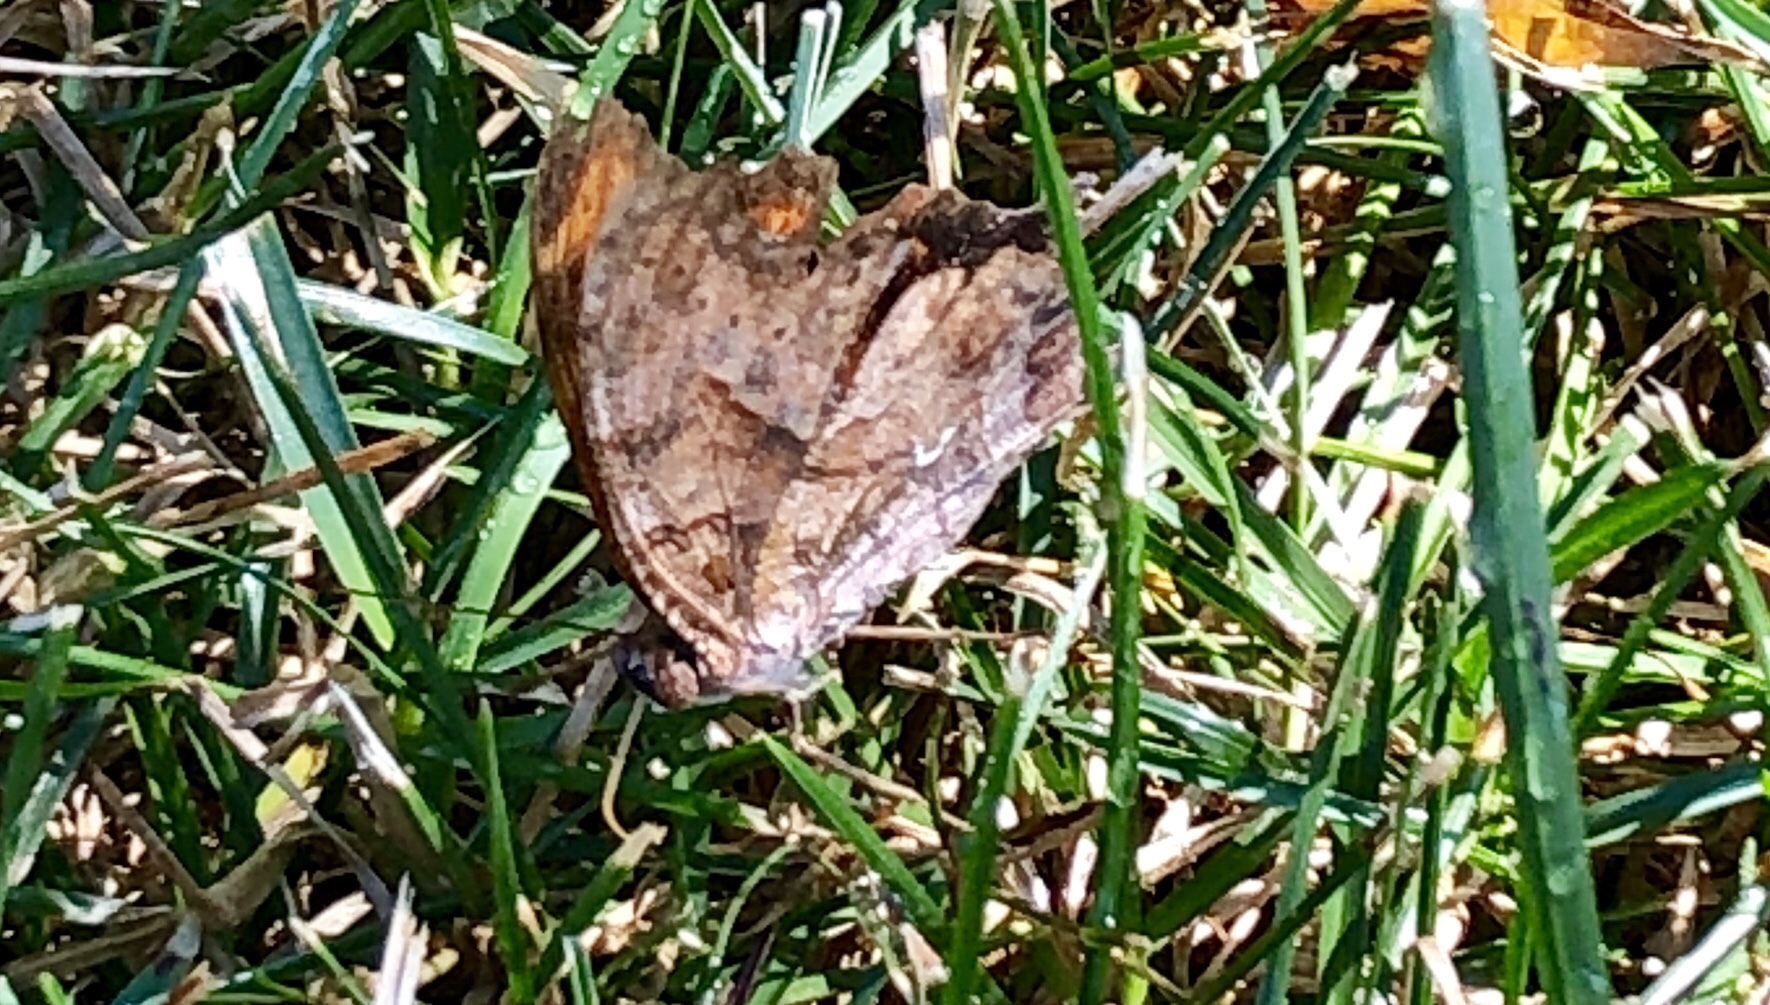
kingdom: Animalia
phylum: Arthropoda
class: Insecta
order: Lepidoptera
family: Nymphalidae
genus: Polygonia
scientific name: Polygonia comma
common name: Eastern comma
